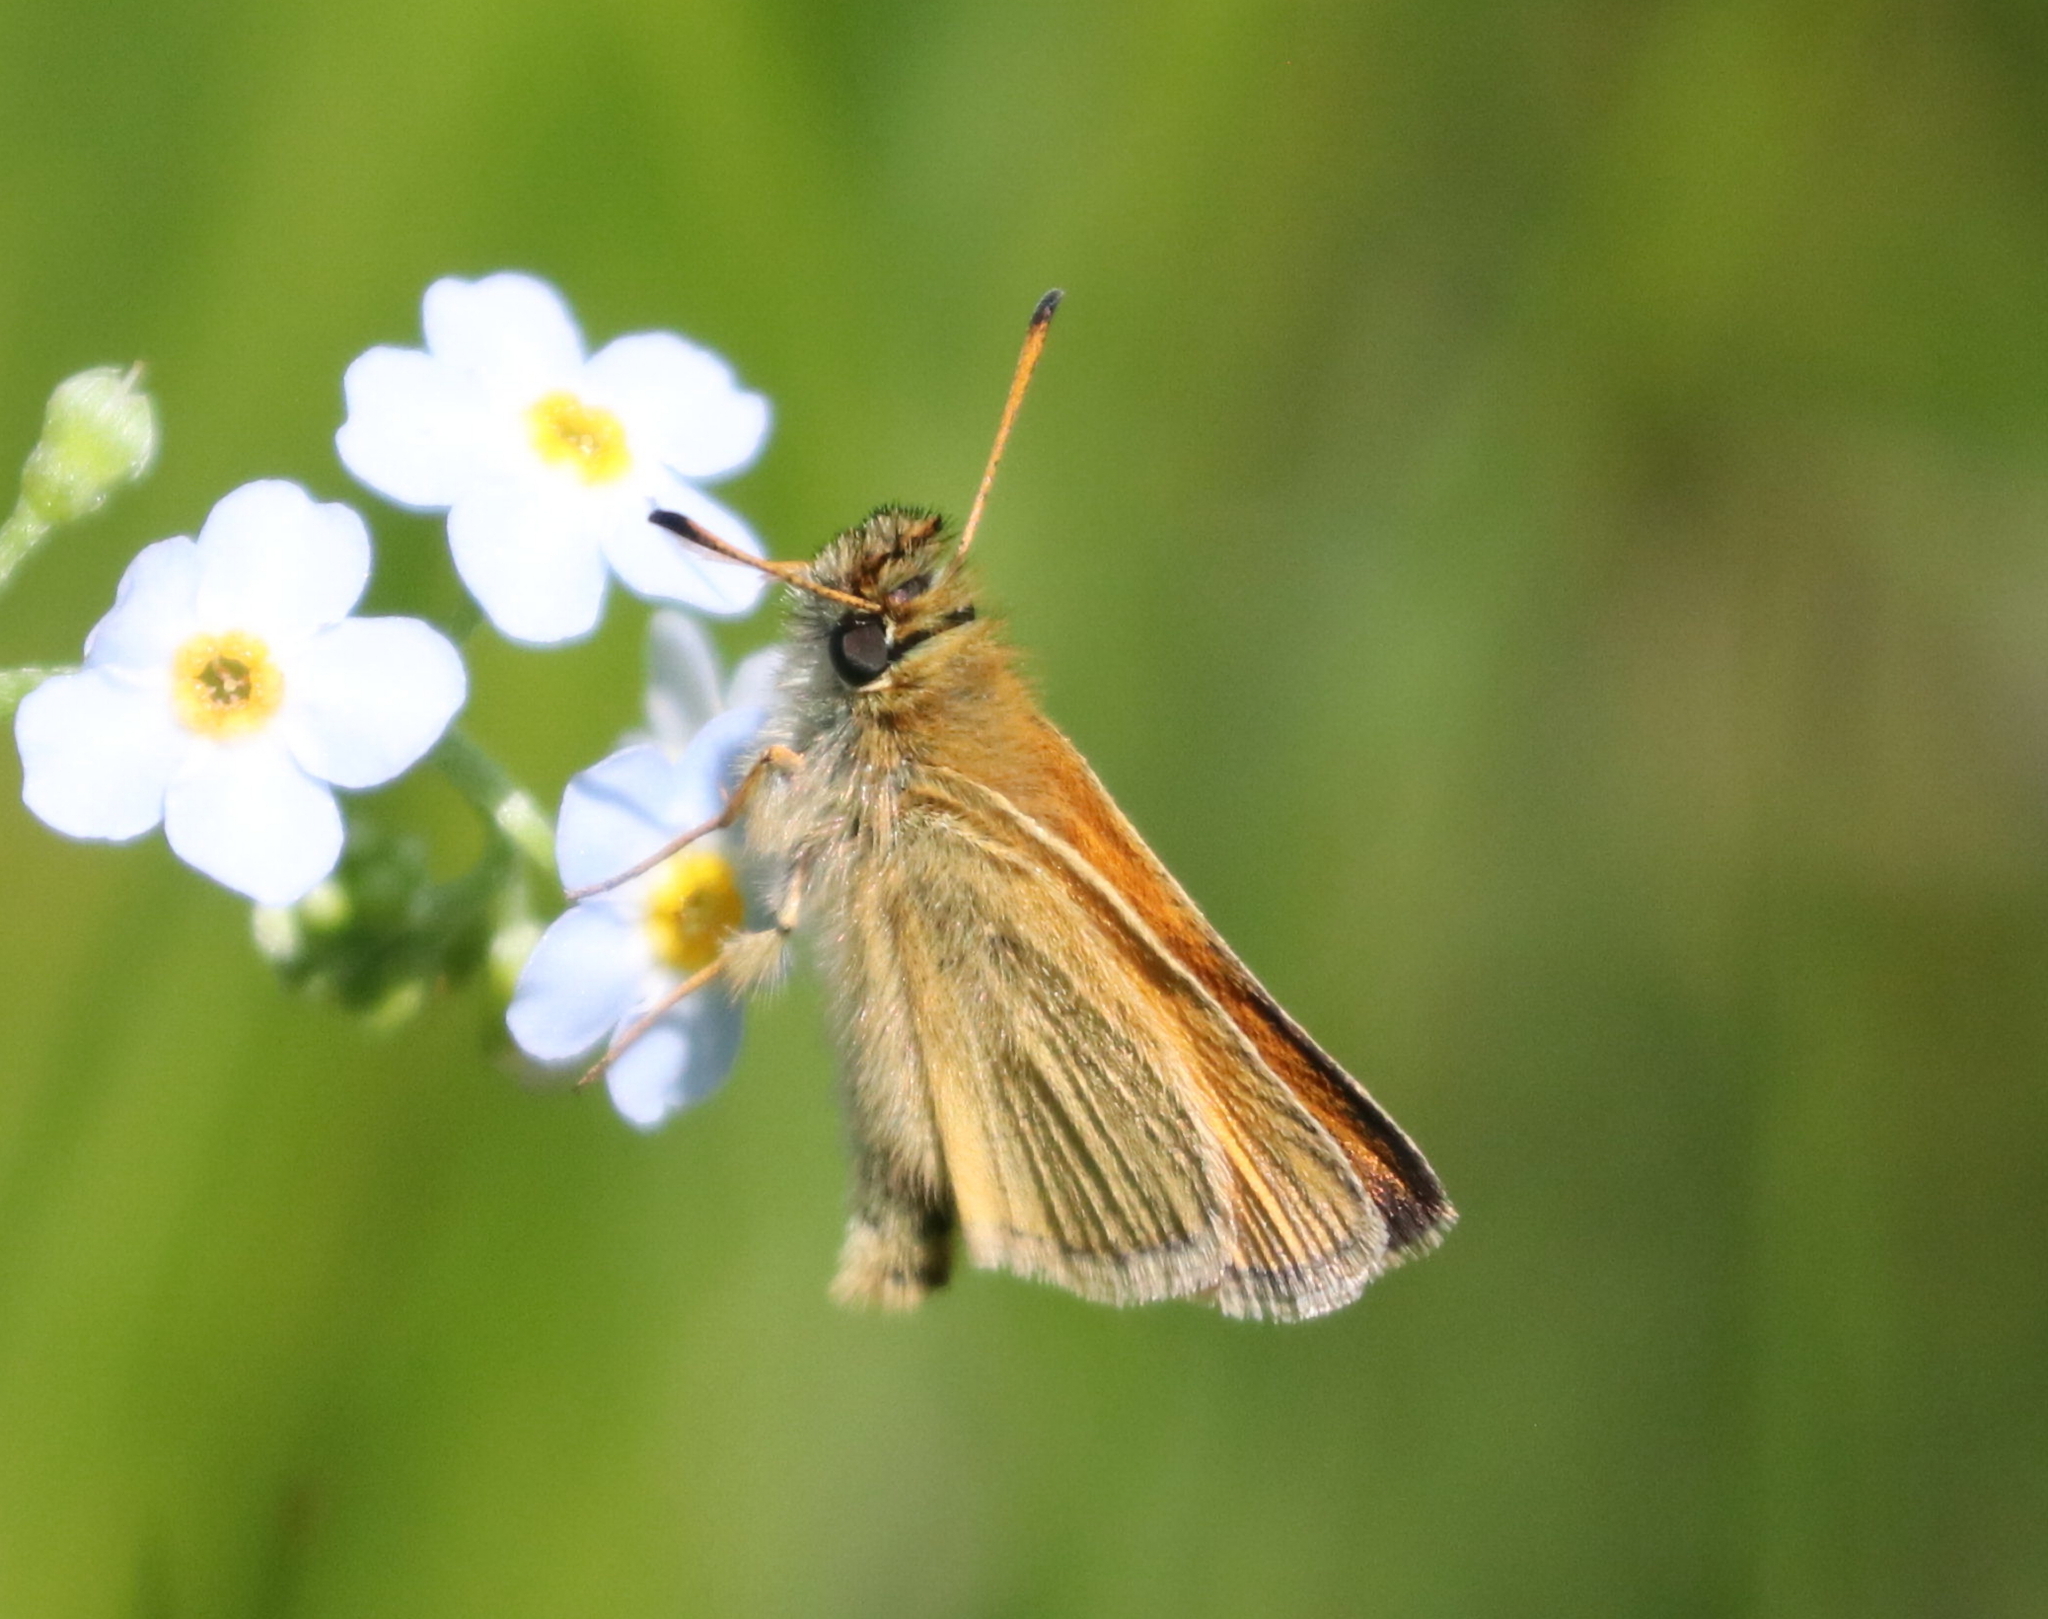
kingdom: Animalia
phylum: Arthropoda
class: Insecta
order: Lepidoptera
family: Hesperiidae
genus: Thymelicus
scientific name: Thymelicus lineola
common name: Essex skipper
